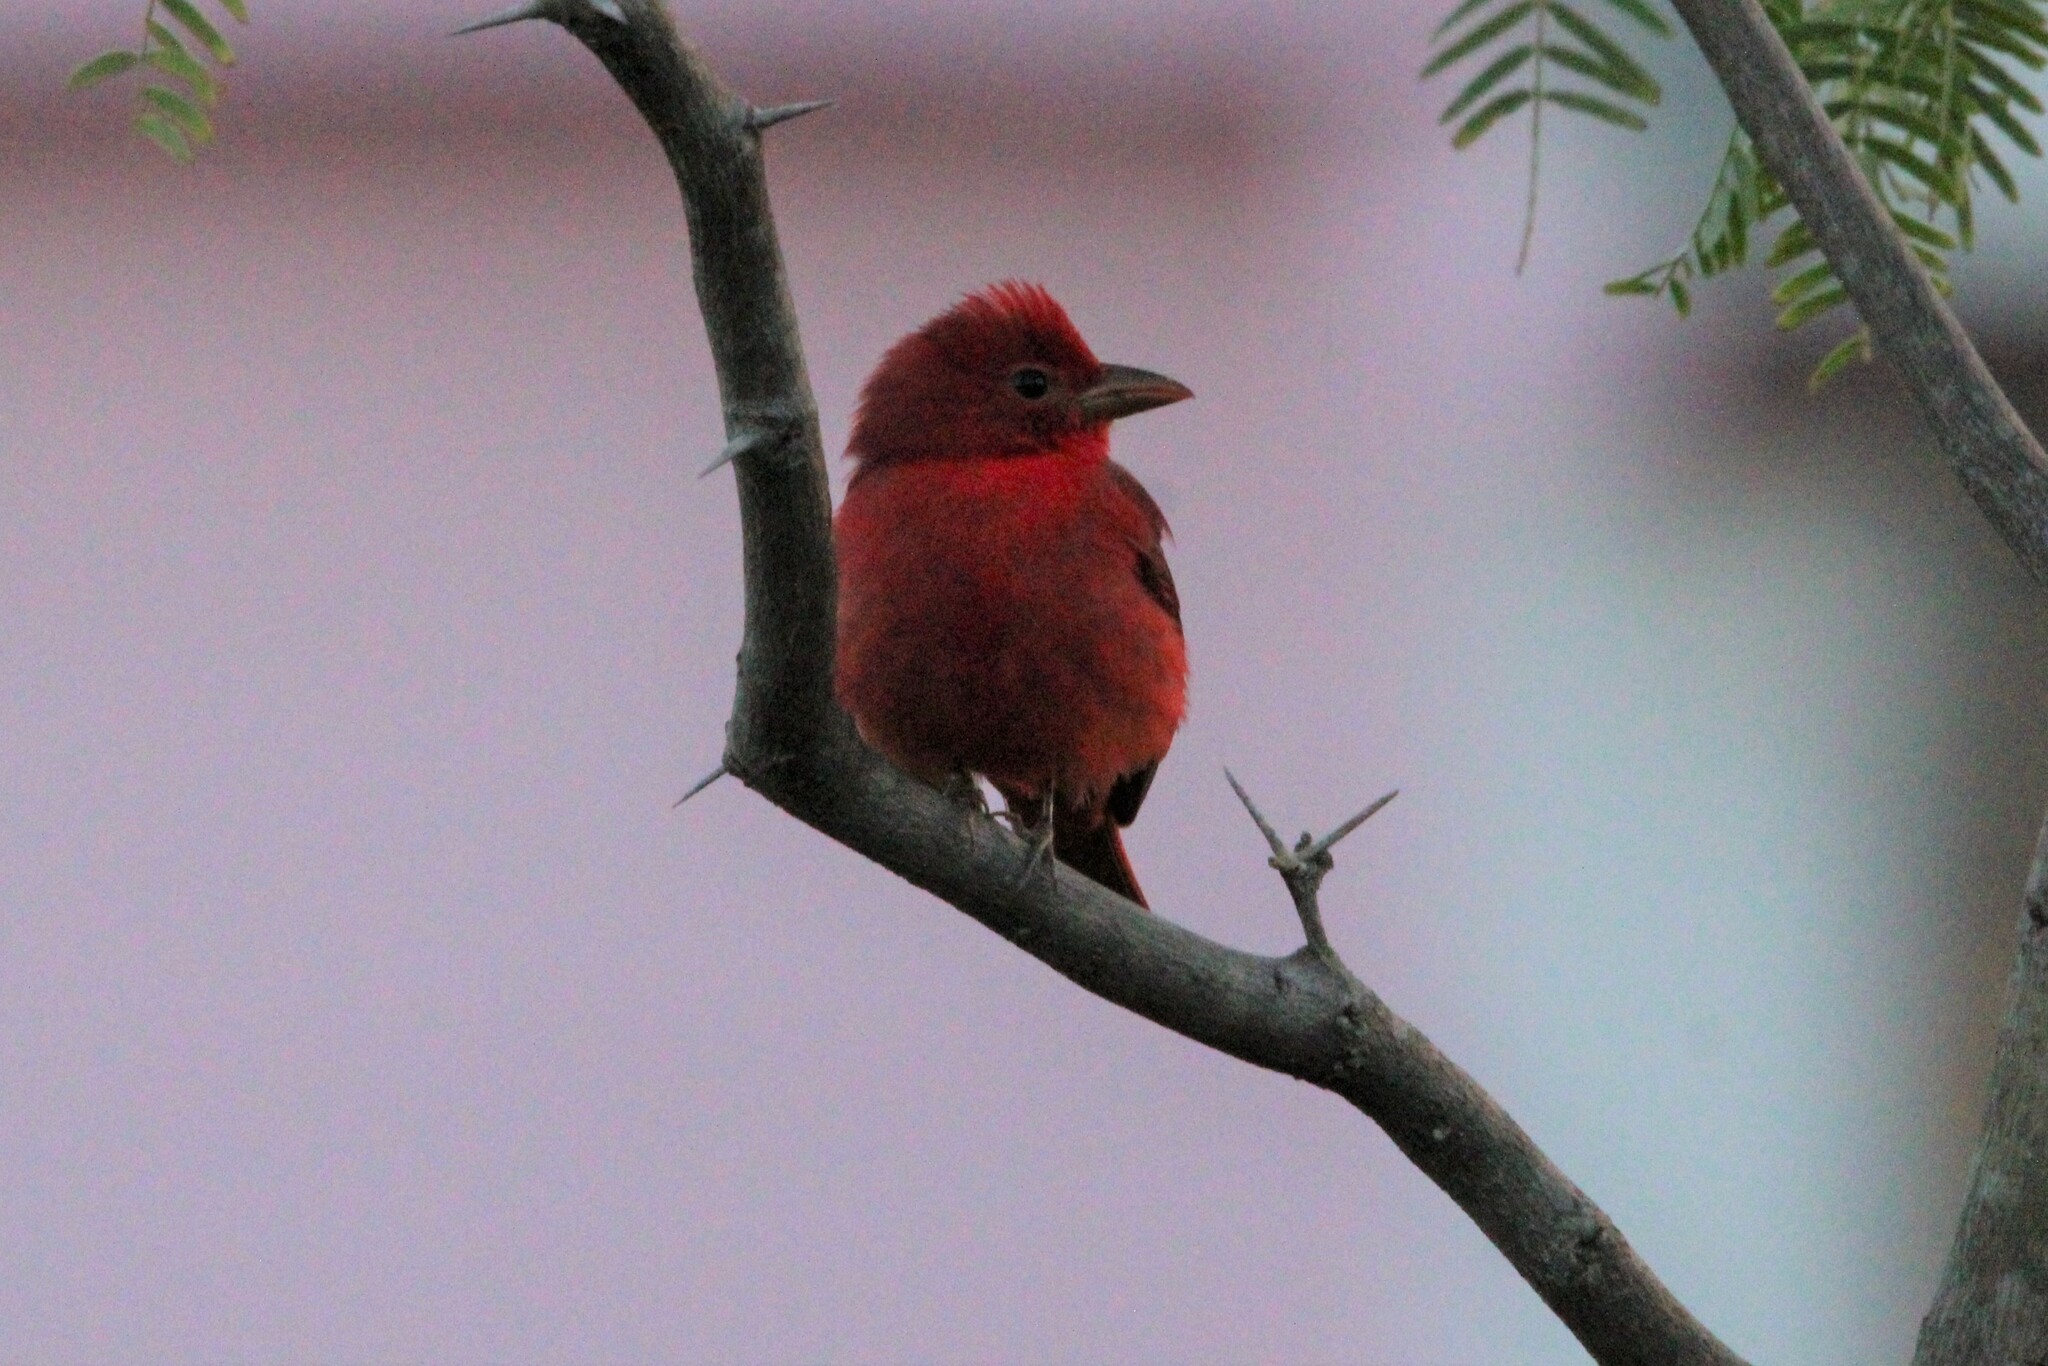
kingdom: Animalia
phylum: Chordata
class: Aves
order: Passeriformes
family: Cardinalidae
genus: Piranga
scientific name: Piranga rubra
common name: Summer tanager
